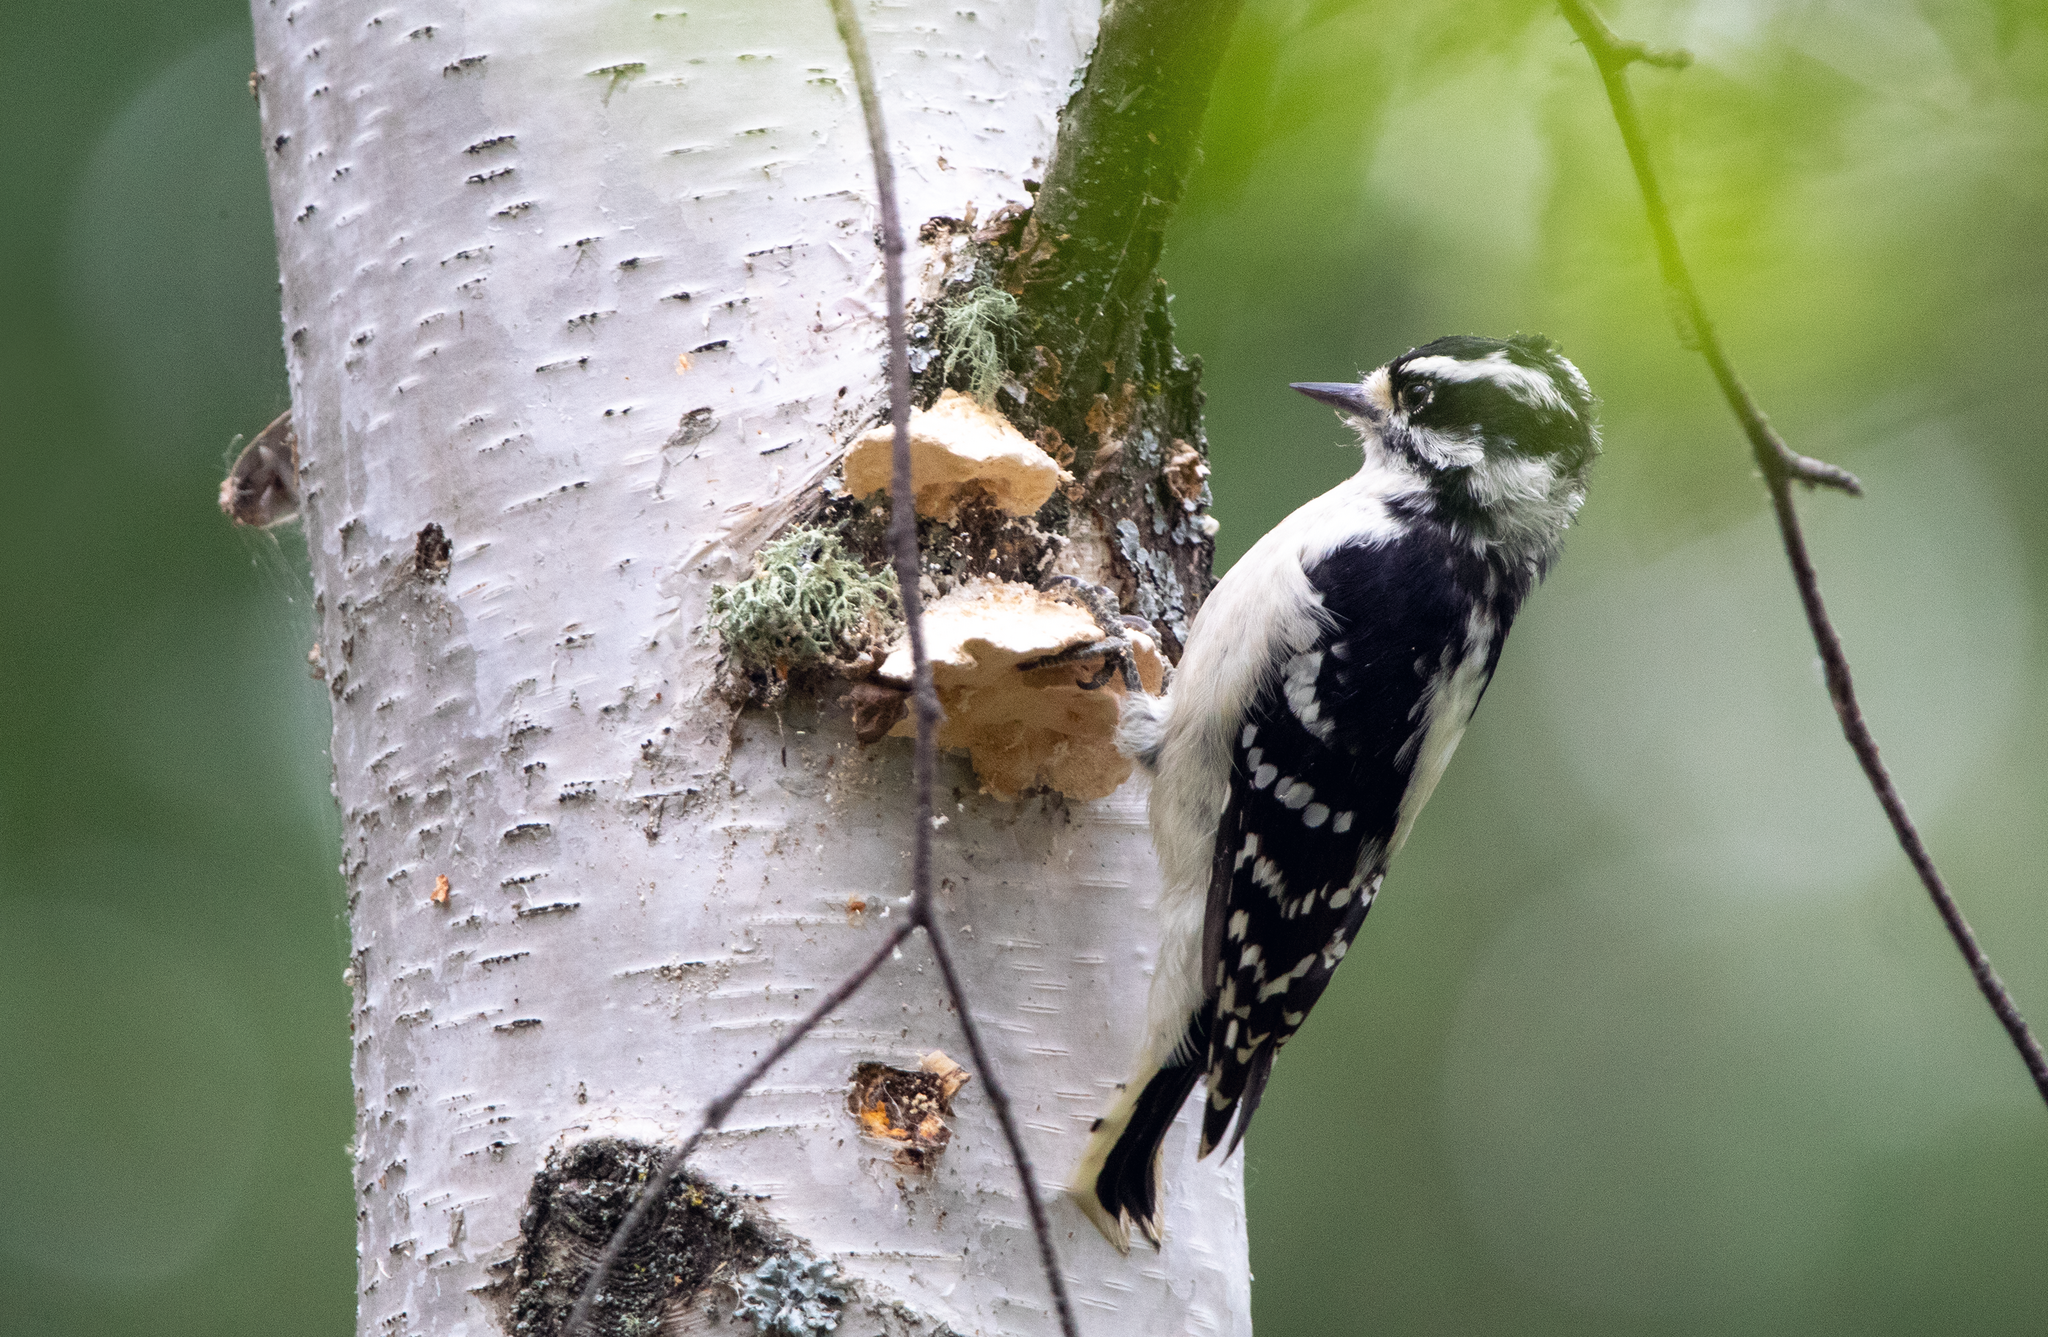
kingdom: Animalia
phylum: Chordata
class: Aves
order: Piciformes
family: Picidae
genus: Dryobates
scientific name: Dryobates pubescens
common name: Downy woodpecker
